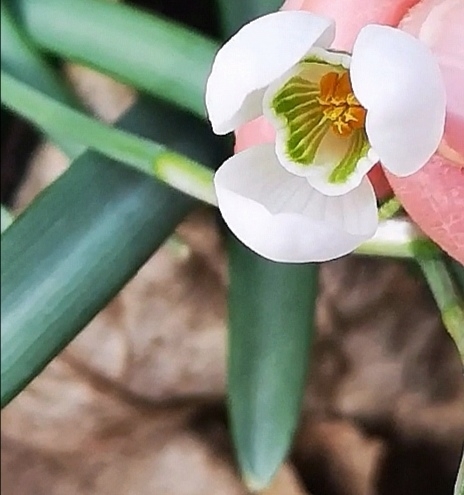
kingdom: Plantae
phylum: Tracheophyta
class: Liliopsida
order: Asparagales
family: Amaryllidaceae
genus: Galanthus
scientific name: Galanthus nivalis
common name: Snowdrop
